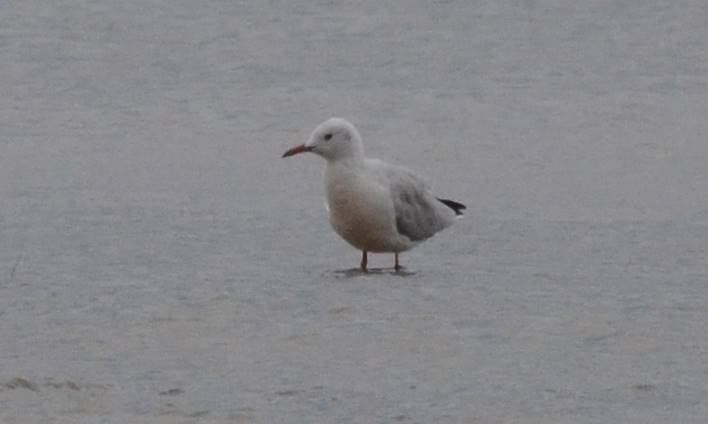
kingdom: Animalia
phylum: Chordata
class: Aves
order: Charadriiformes
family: Laridae
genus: Chroicocephalus
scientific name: Chroicocephalus genei
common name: Slender-billed gull
